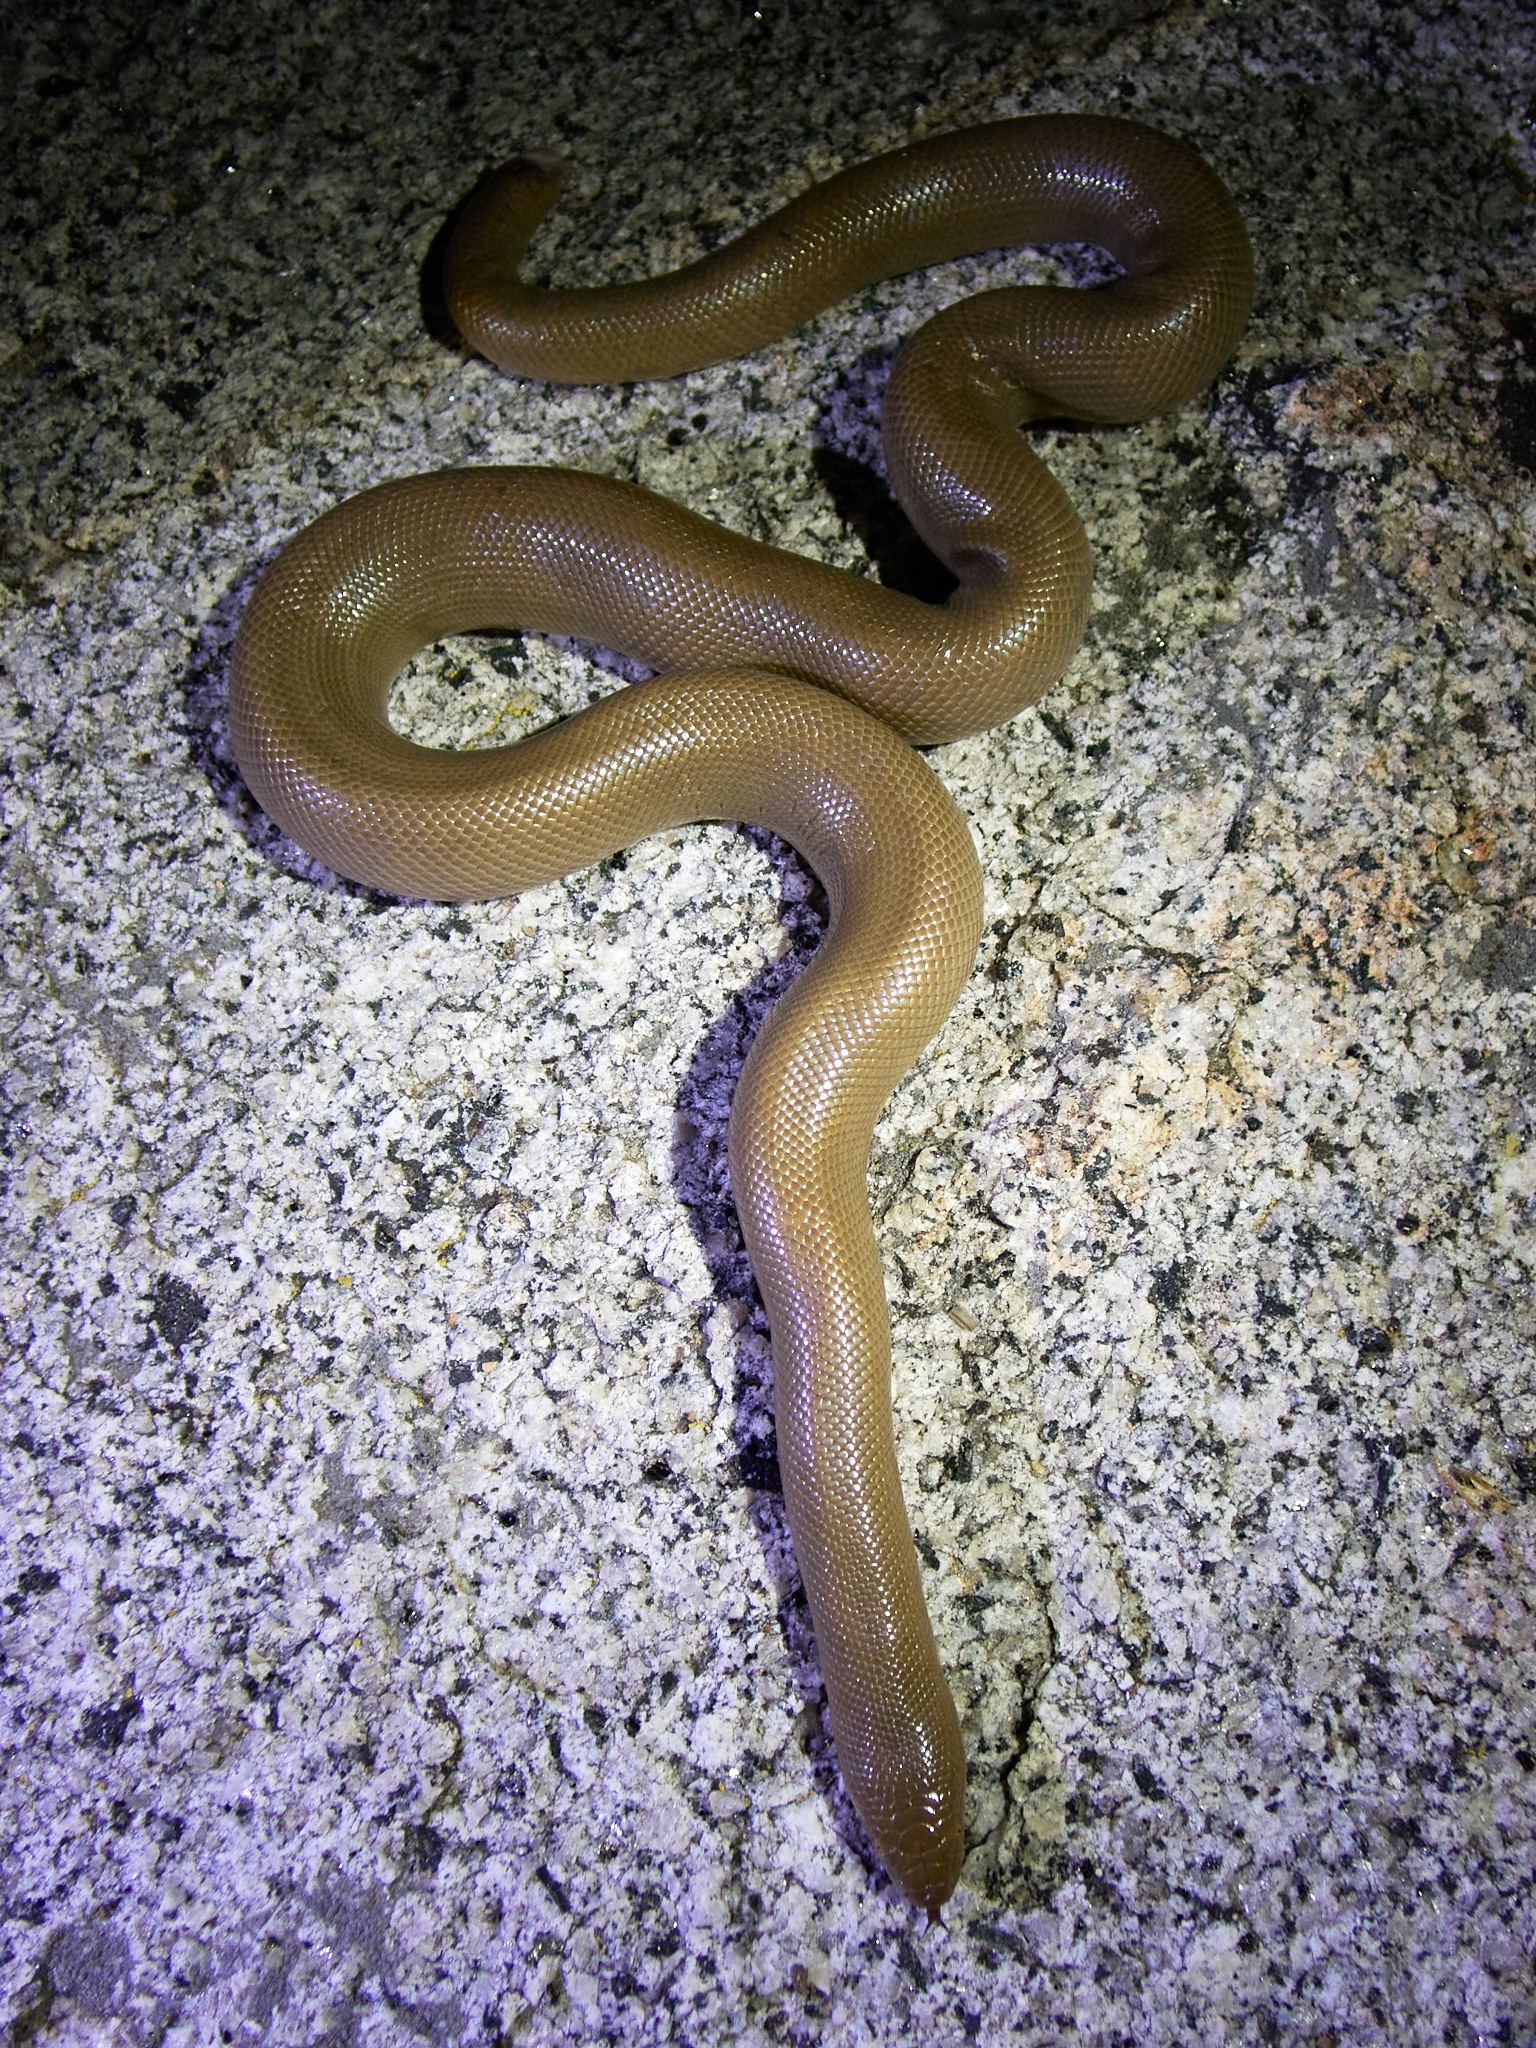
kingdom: Animalia
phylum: Chordata
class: Squamata
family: Boidae
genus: Charina
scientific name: Charina bottae
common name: Northern rubber boa
